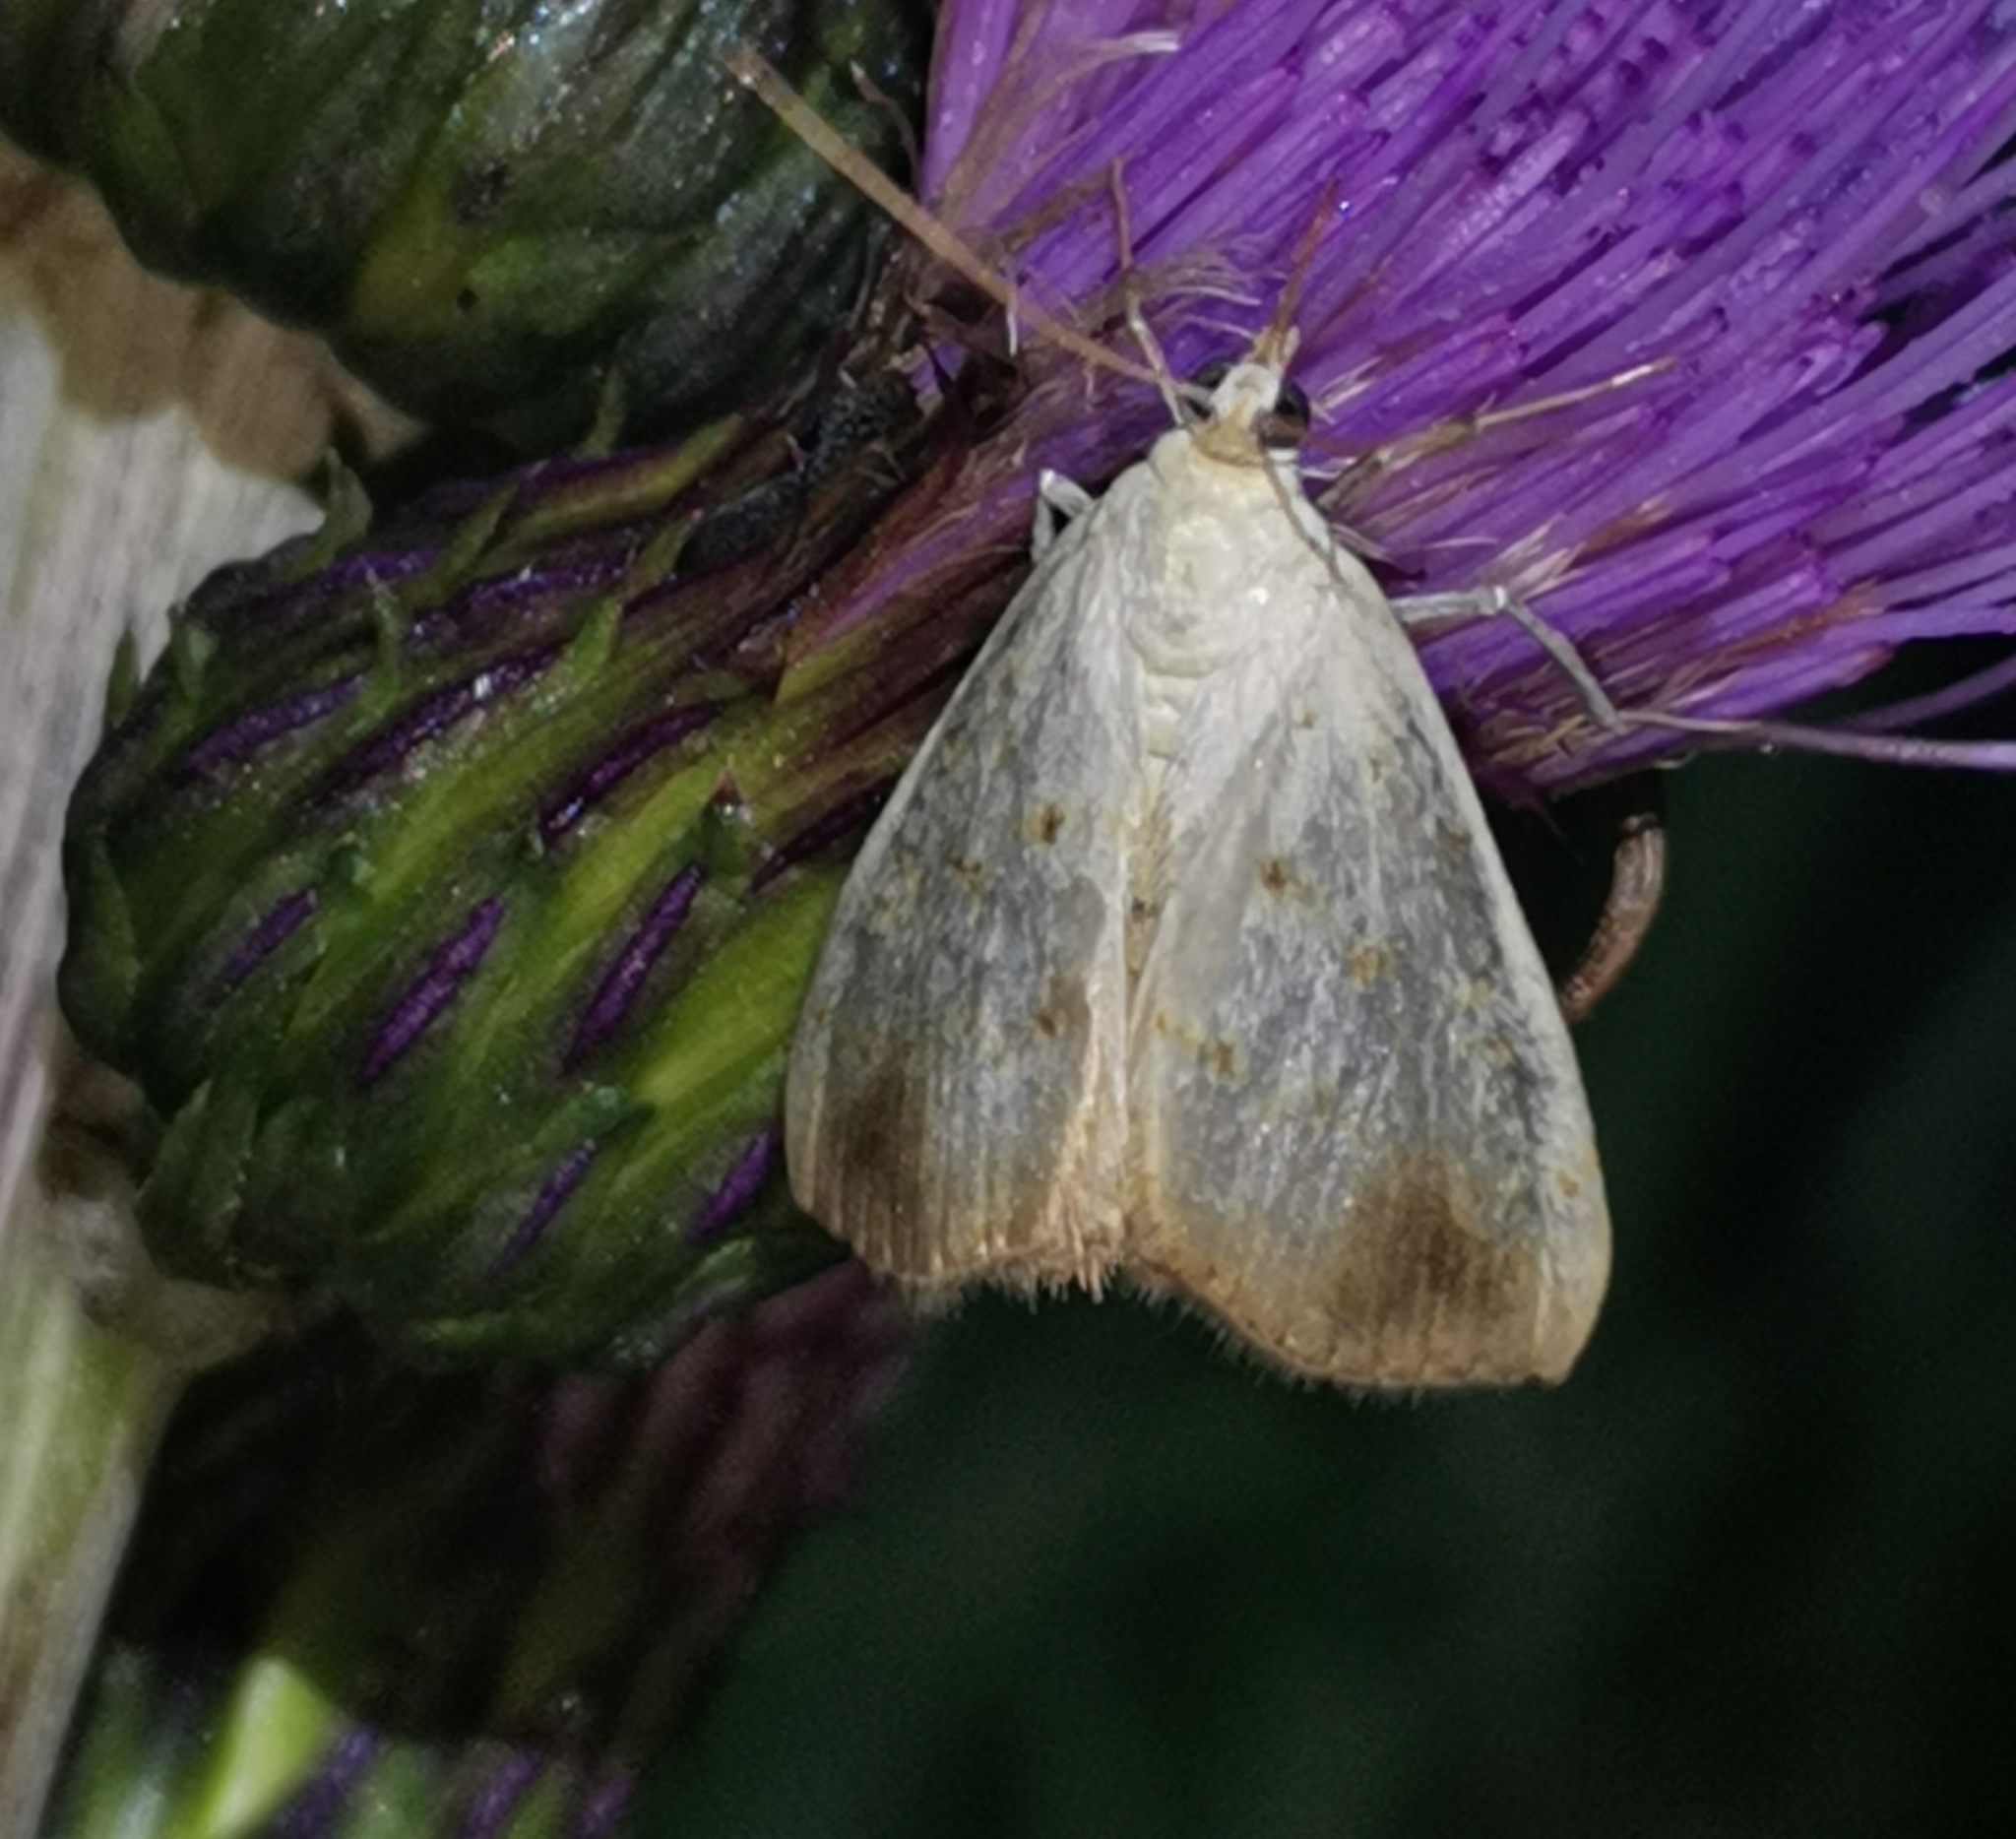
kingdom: Animalia
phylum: Arthropoda
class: Insecta
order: Lepidoptera
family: Crambidae
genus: Evergestis
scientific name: Evergestis extimalis
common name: Marbled yellow pearl
